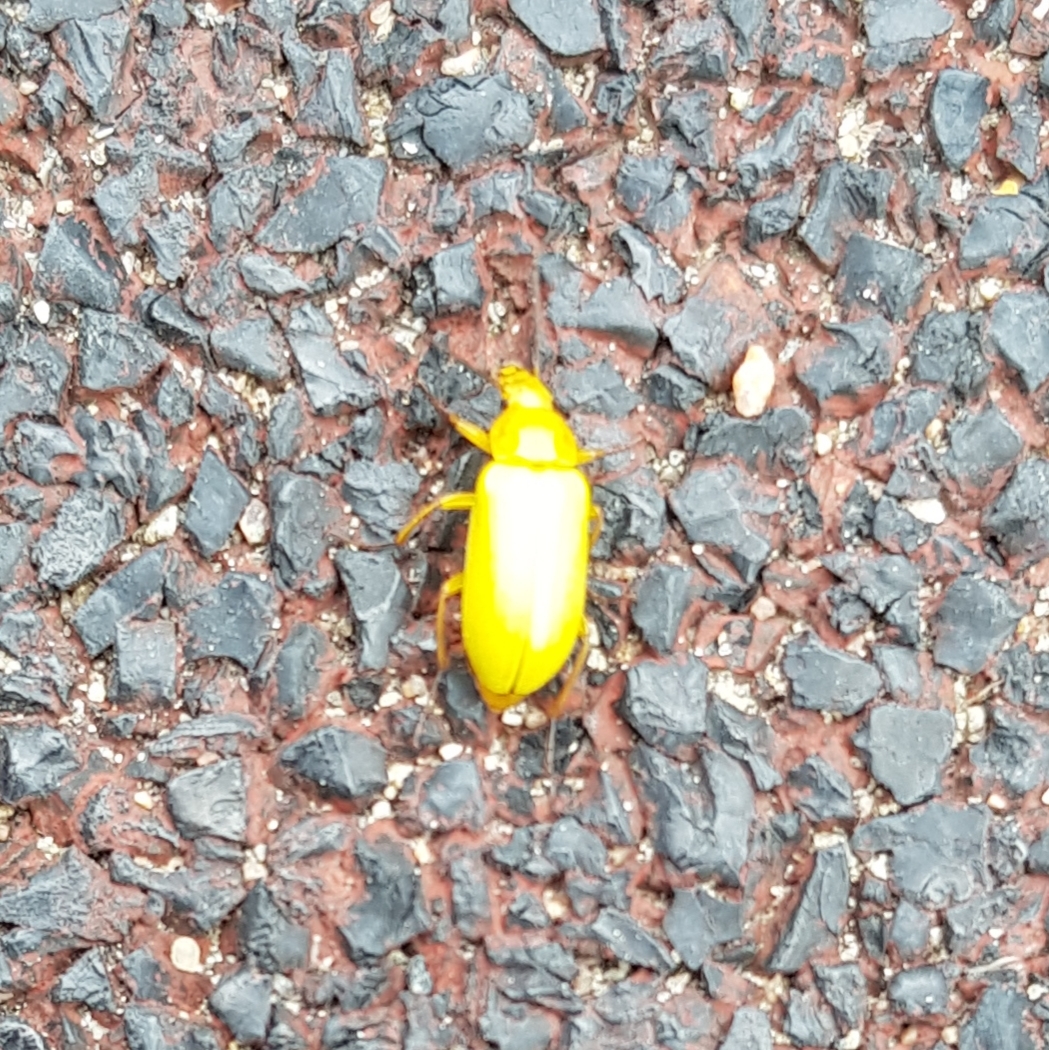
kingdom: Animalia
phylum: Arthropoda
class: Insecta
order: Coleoptera
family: Tenebrionidae
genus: Cteniopus
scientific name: Cteniopus sulphureus
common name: Sulphur beetle
